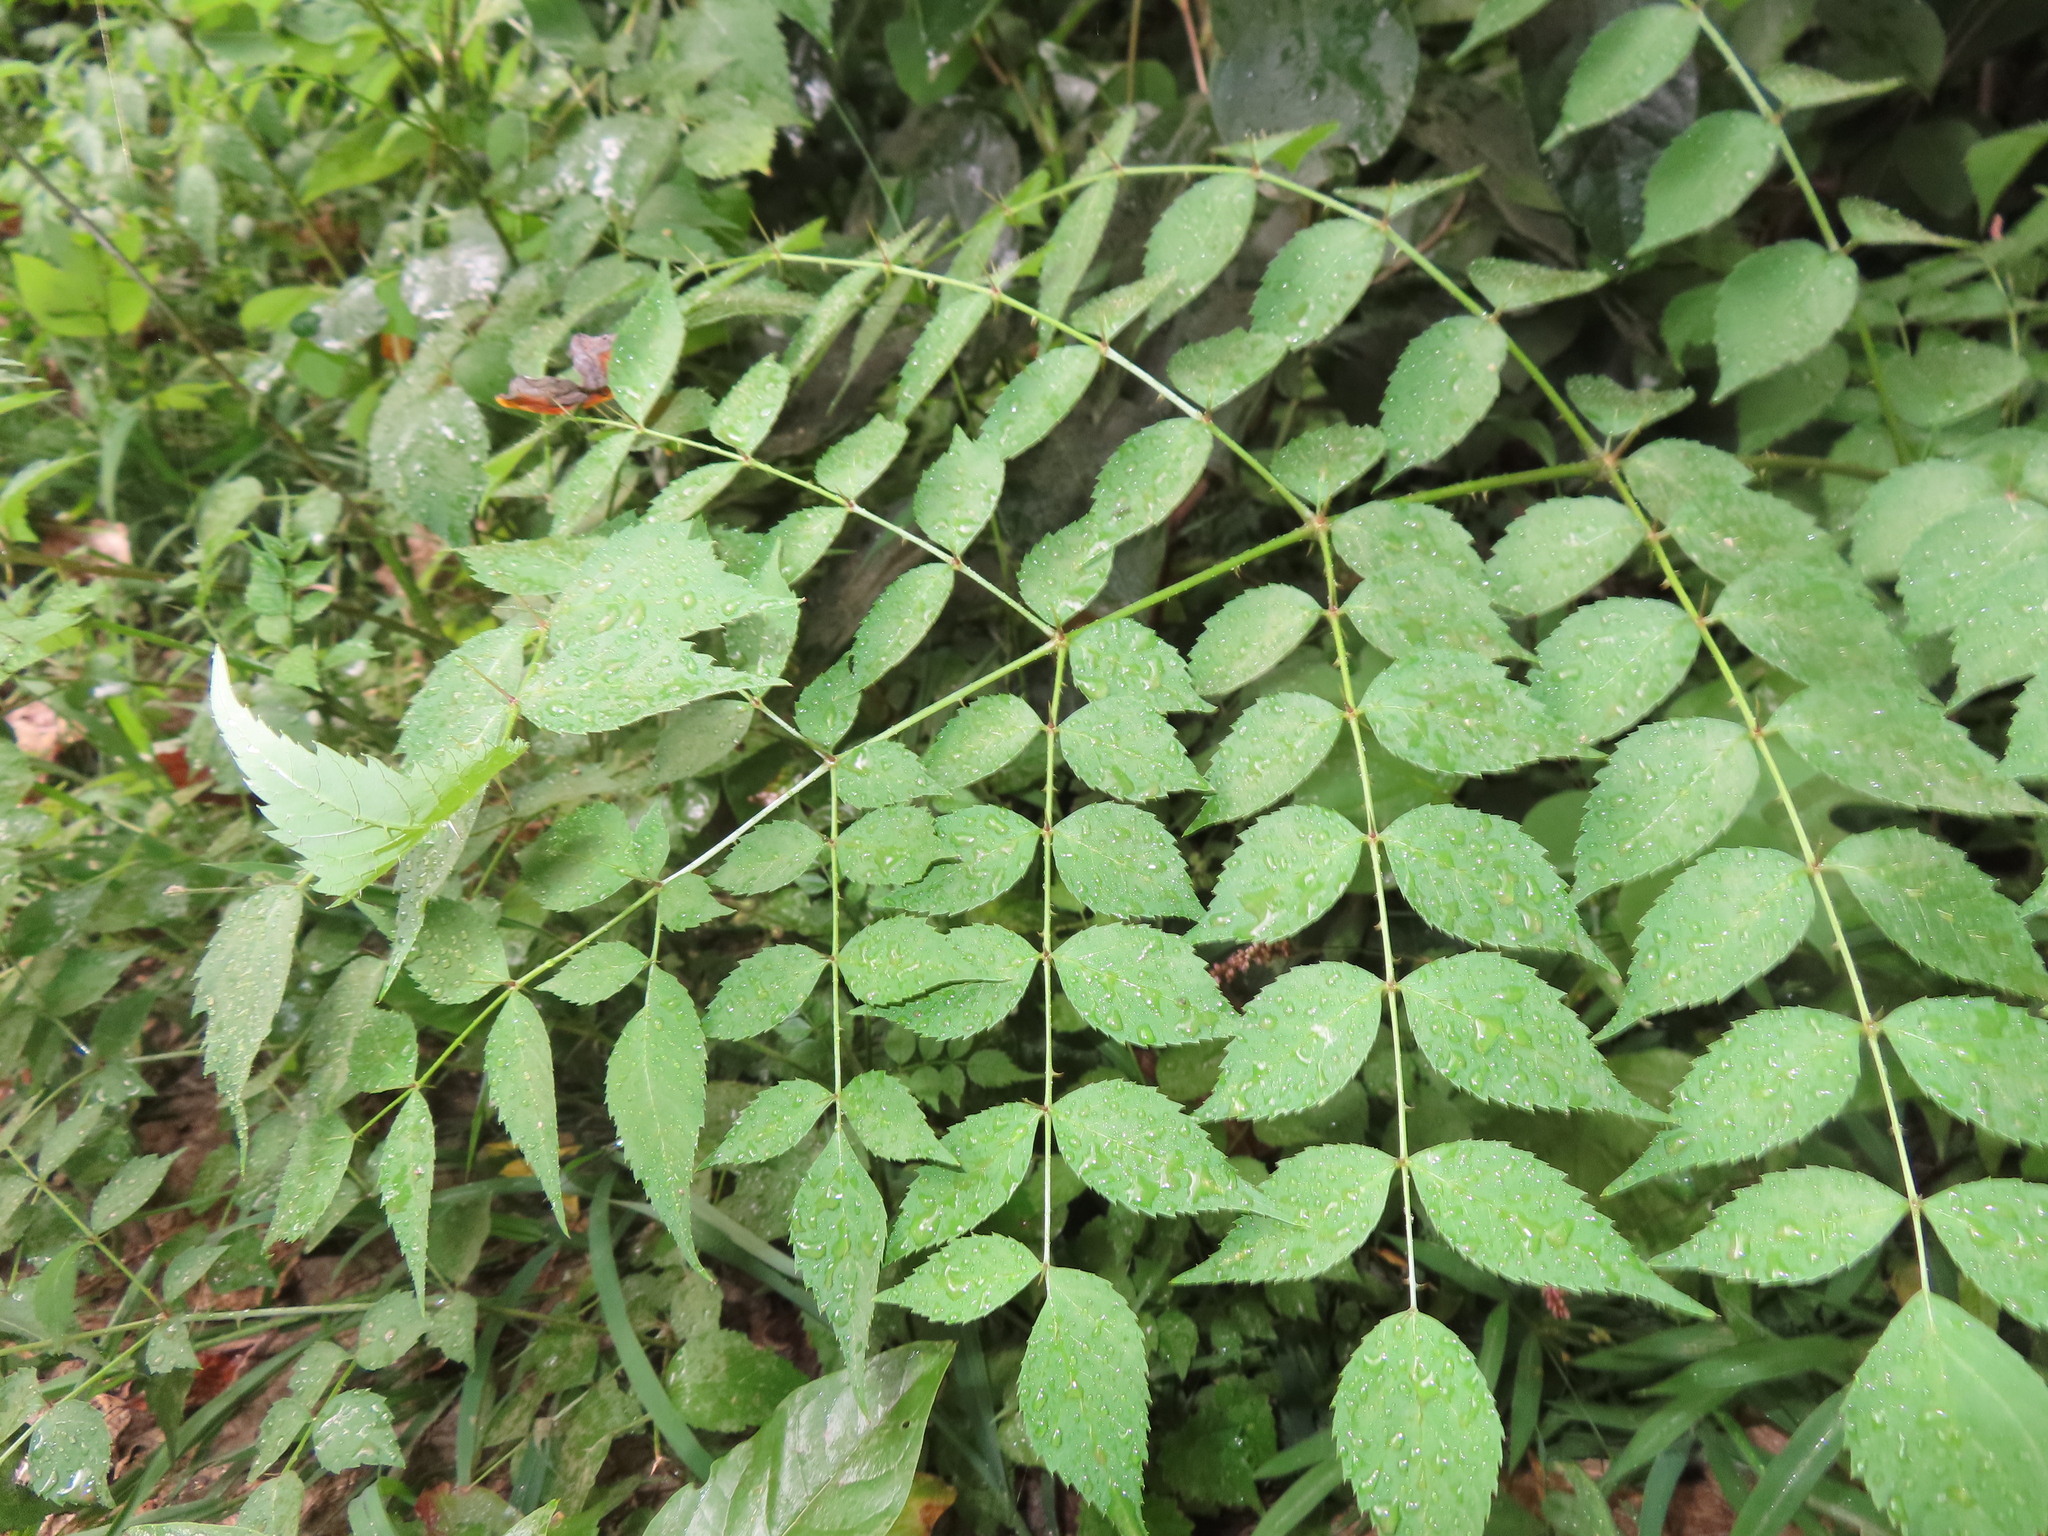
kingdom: Plantae
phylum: Tracheophyta
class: Magnoliopsida
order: Apiales
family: Araliaceae
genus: Aralia
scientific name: Aralia elata
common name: Japanese angelica-tree
